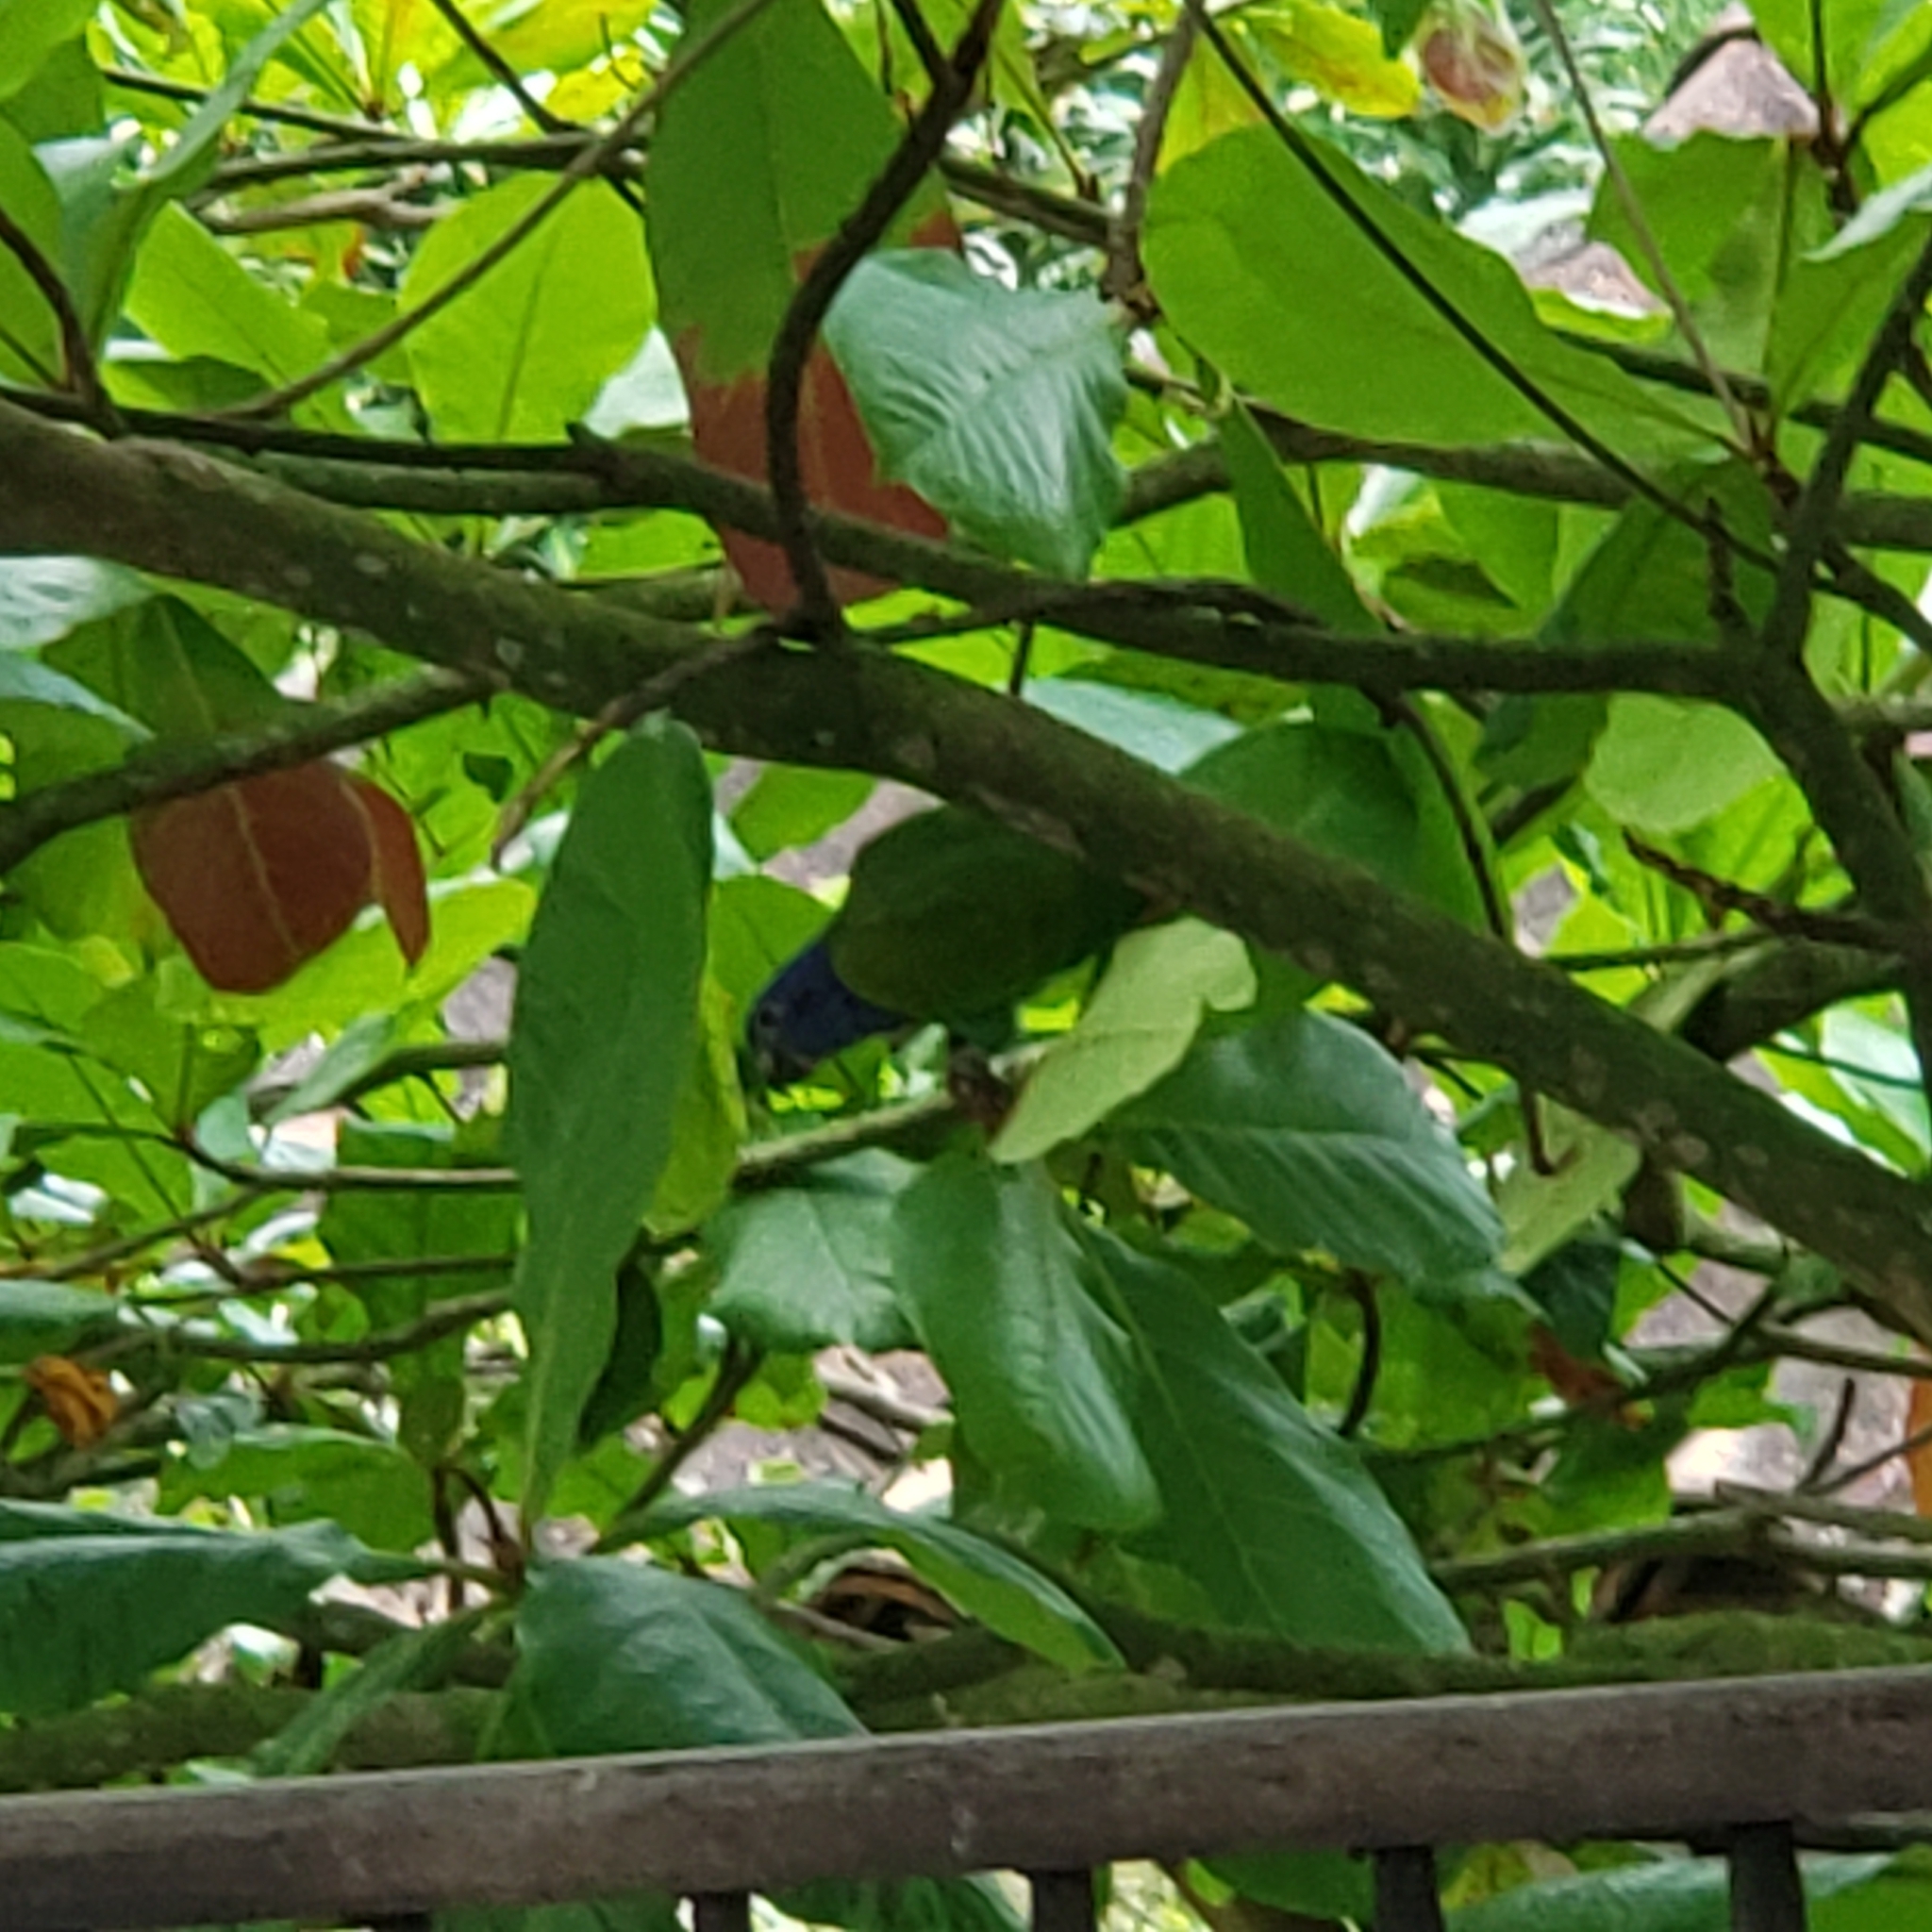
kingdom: Animalia
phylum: Chordata
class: Aves
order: Psittaciformes
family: Psittacidae
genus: Pionus
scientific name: Pionus menstruus
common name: Blue-headed parrot
